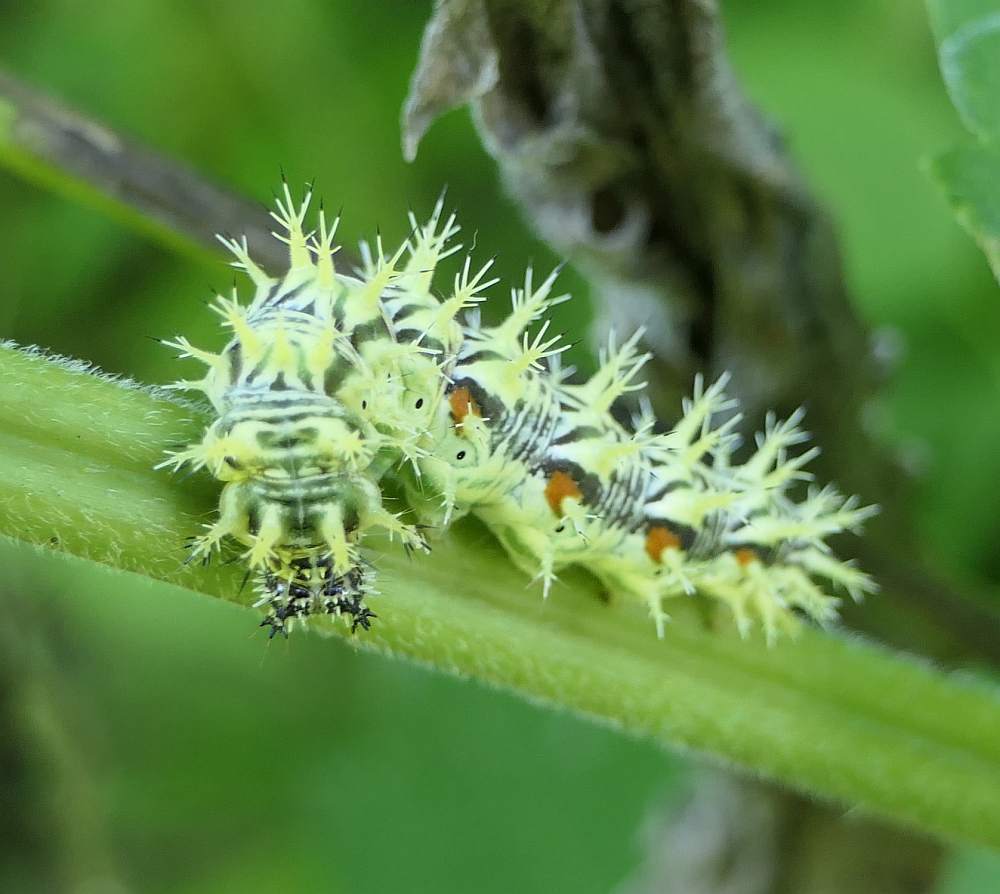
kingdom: Animalia
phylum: Arthropoda
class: Insecta
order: Lepidoptera
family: Nymphalidae
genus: Polygonia
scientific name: Polygonia comma
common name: Eastern comma
